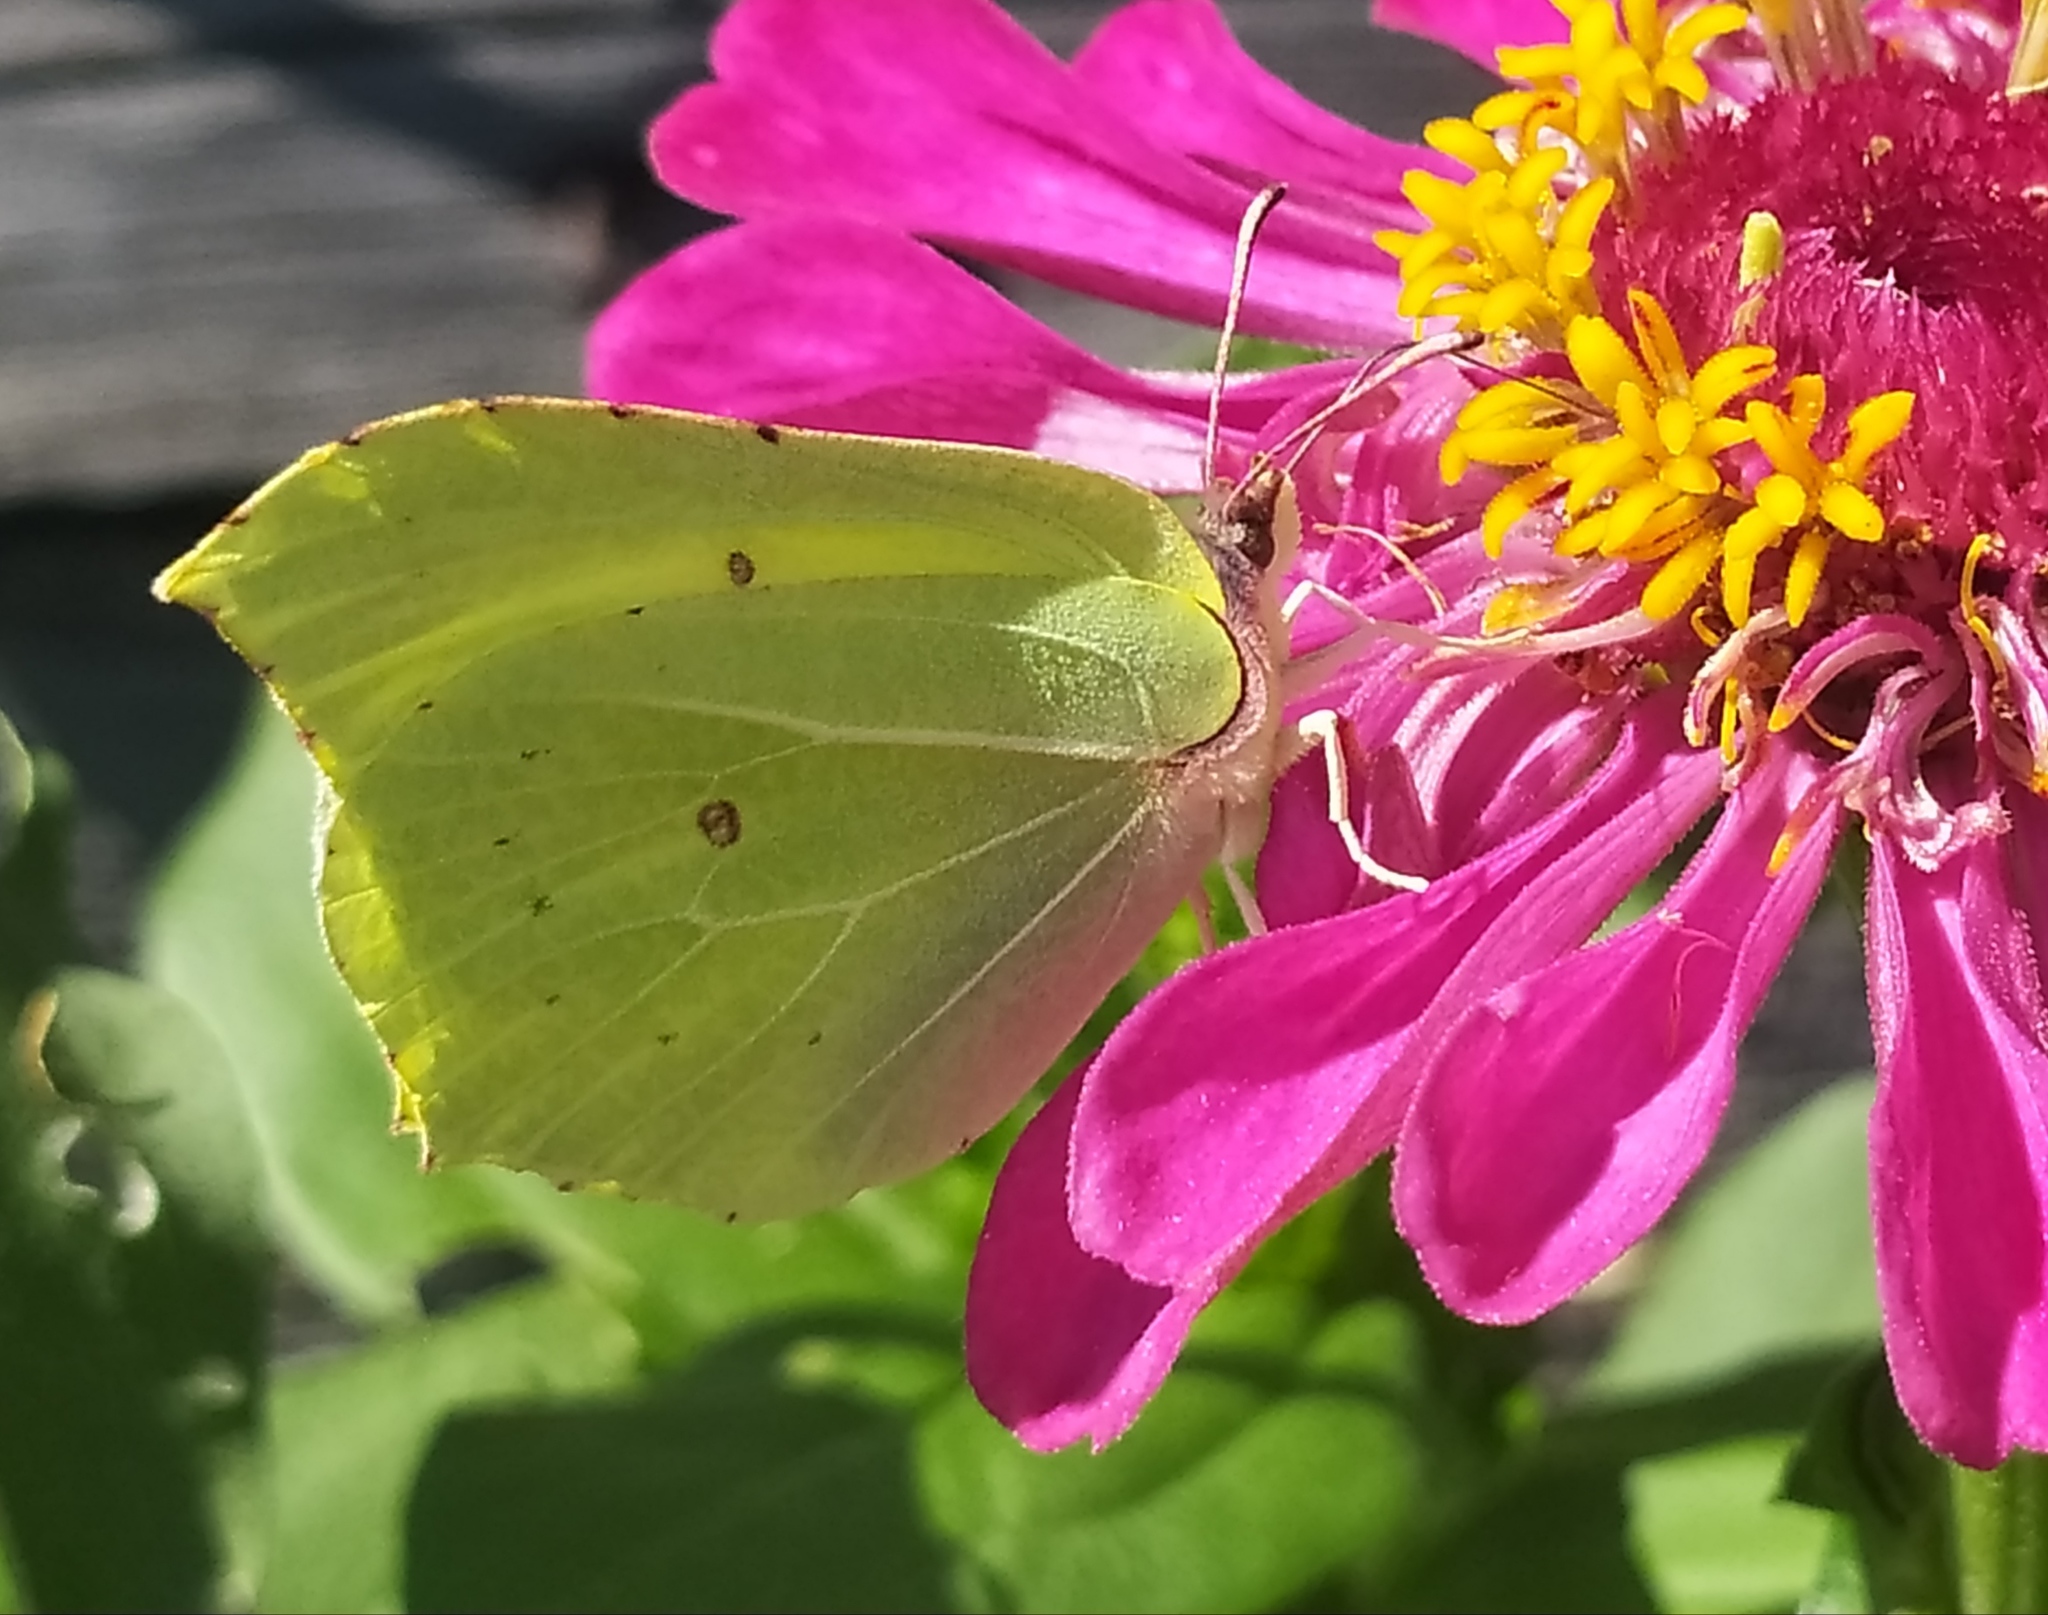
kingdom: Animalia
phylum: Arthropoda
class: Insecta
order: Lepidoptera
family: Pieridae
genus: Gonepteryx
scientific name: Gonepteryx rhamni
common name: Brimstone
